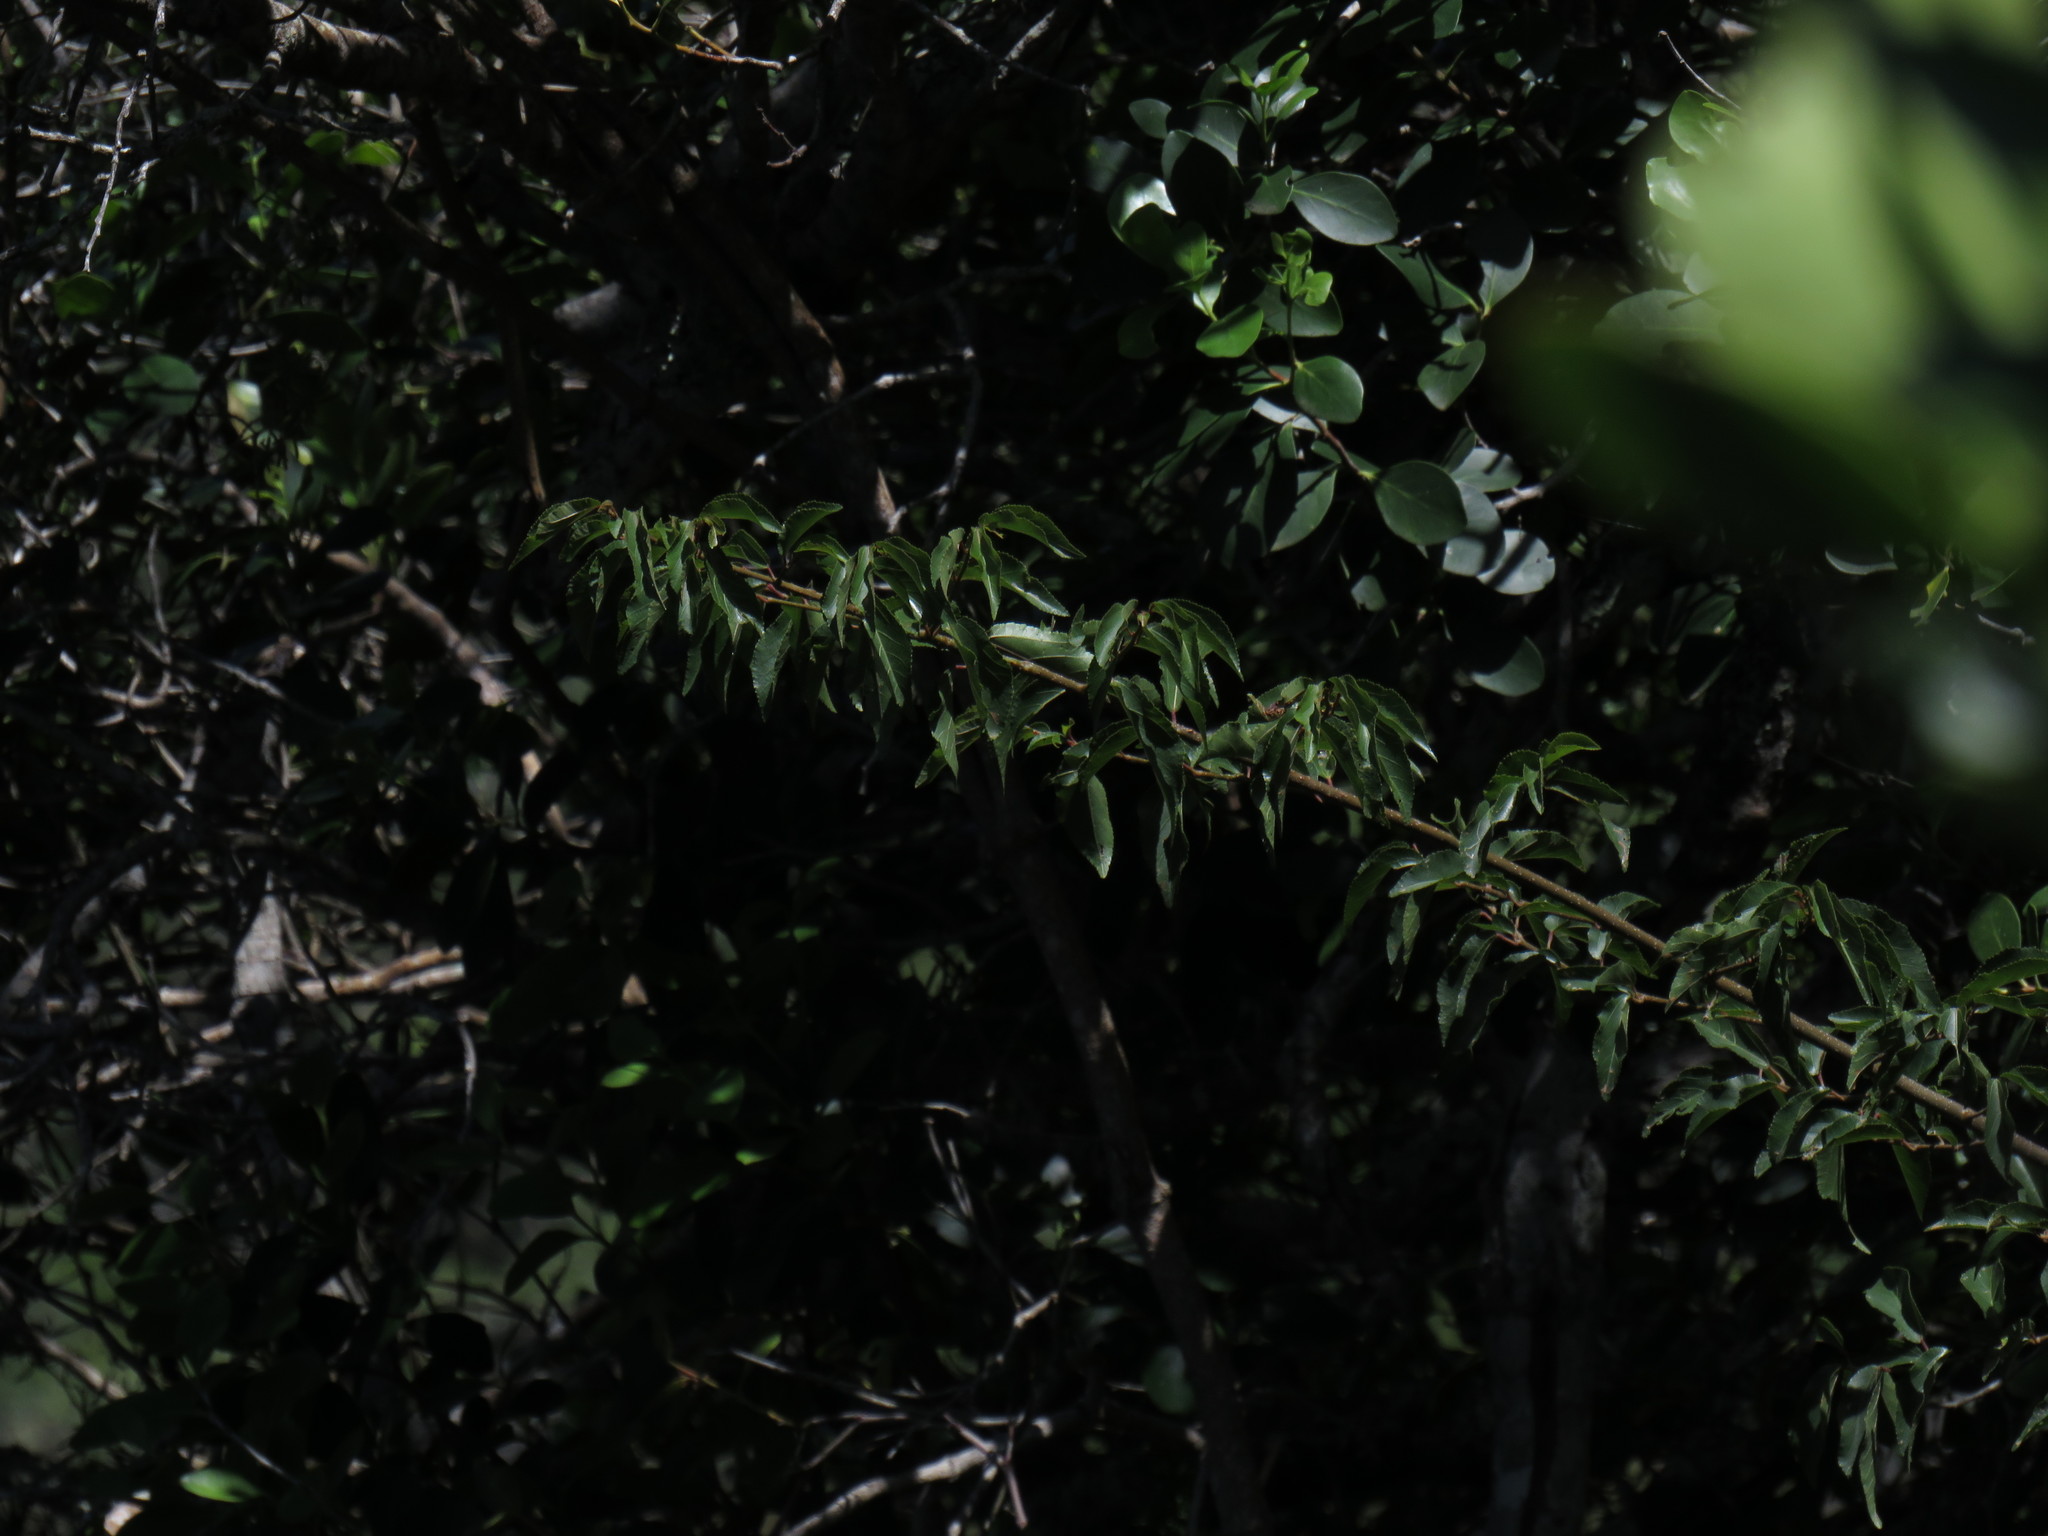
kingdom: Plantae
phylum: Tracheophyta
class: Magnoliopsida
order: Malvales
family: Malvaceae
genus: Grewia
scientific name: Grewia occidentalis
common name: Crossberry
